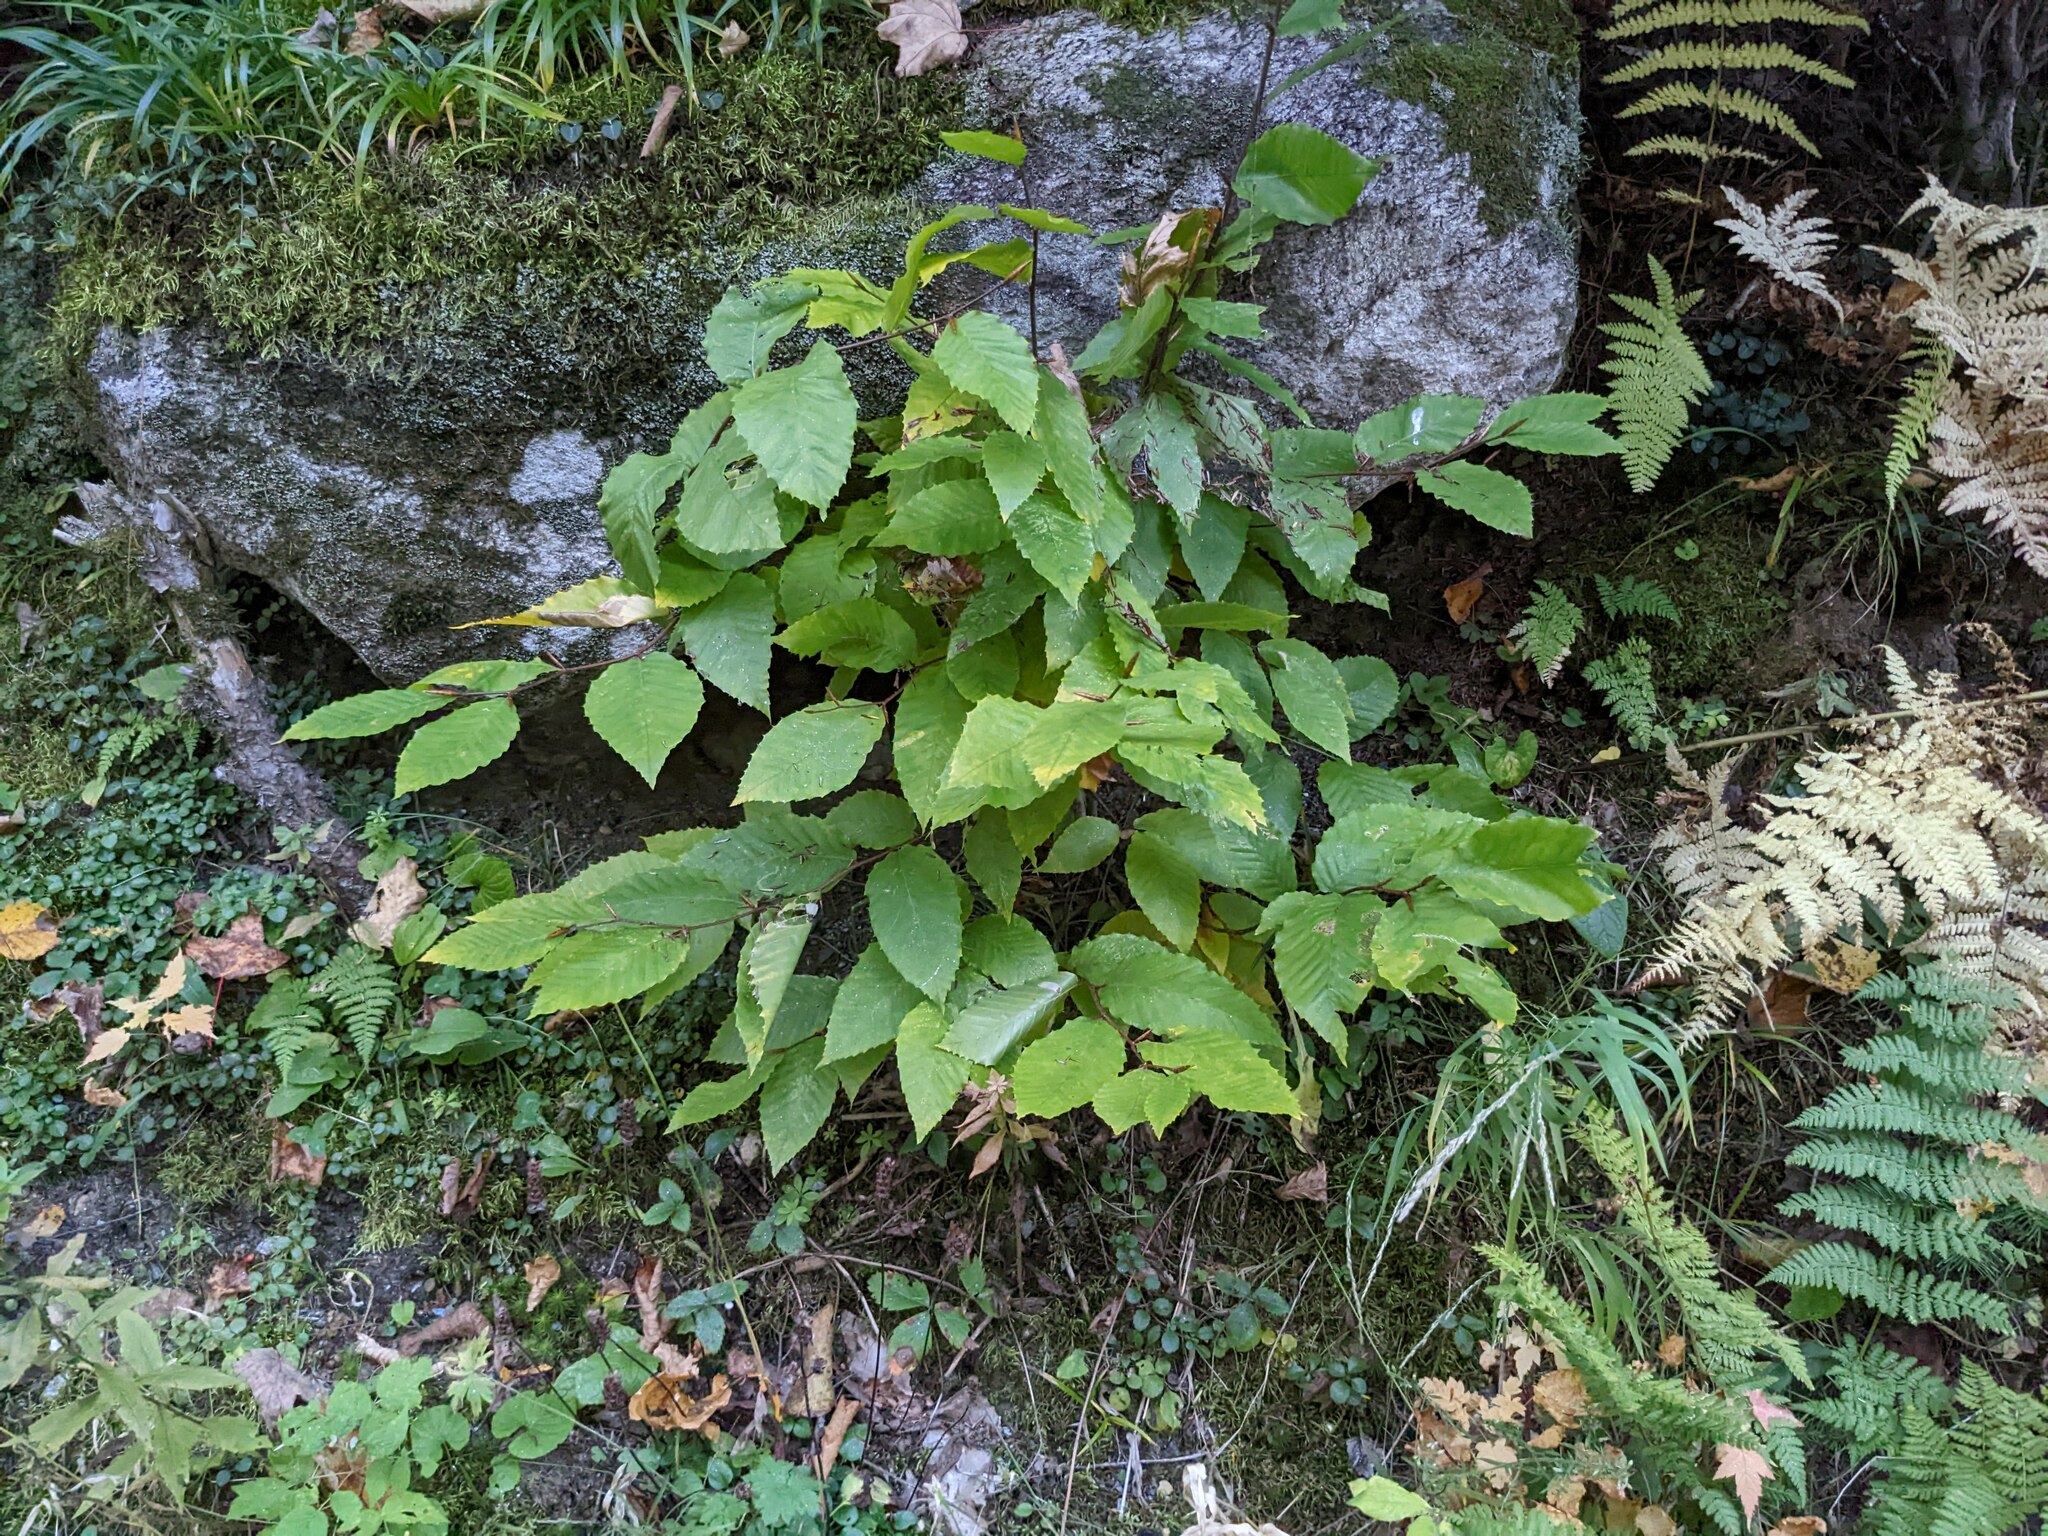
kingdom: Plantae
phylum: Tracheophyta
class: Magnoliopsida
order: Fagales
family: Fagaceae
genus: Fagus
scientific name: Fagus grandifolia
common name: American beech
